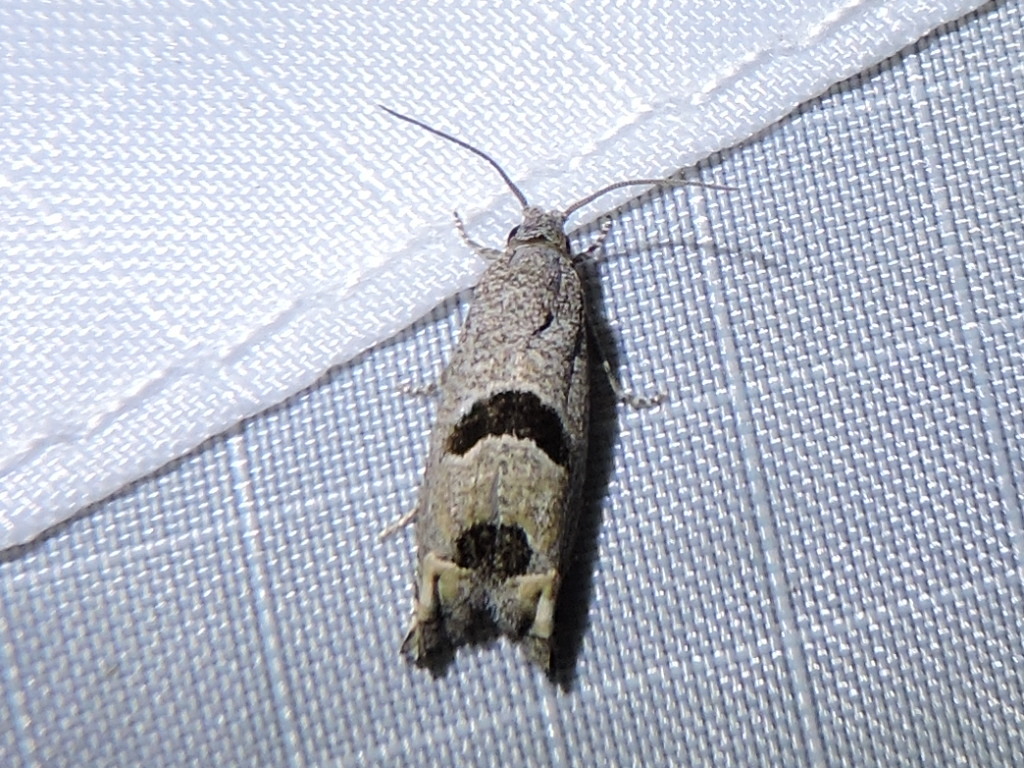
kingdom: Animalia
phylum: Arthropoda
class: Insecta
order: Lepidoptera
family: Tortricidae
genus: Suleima
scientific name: Suleima helianthana
